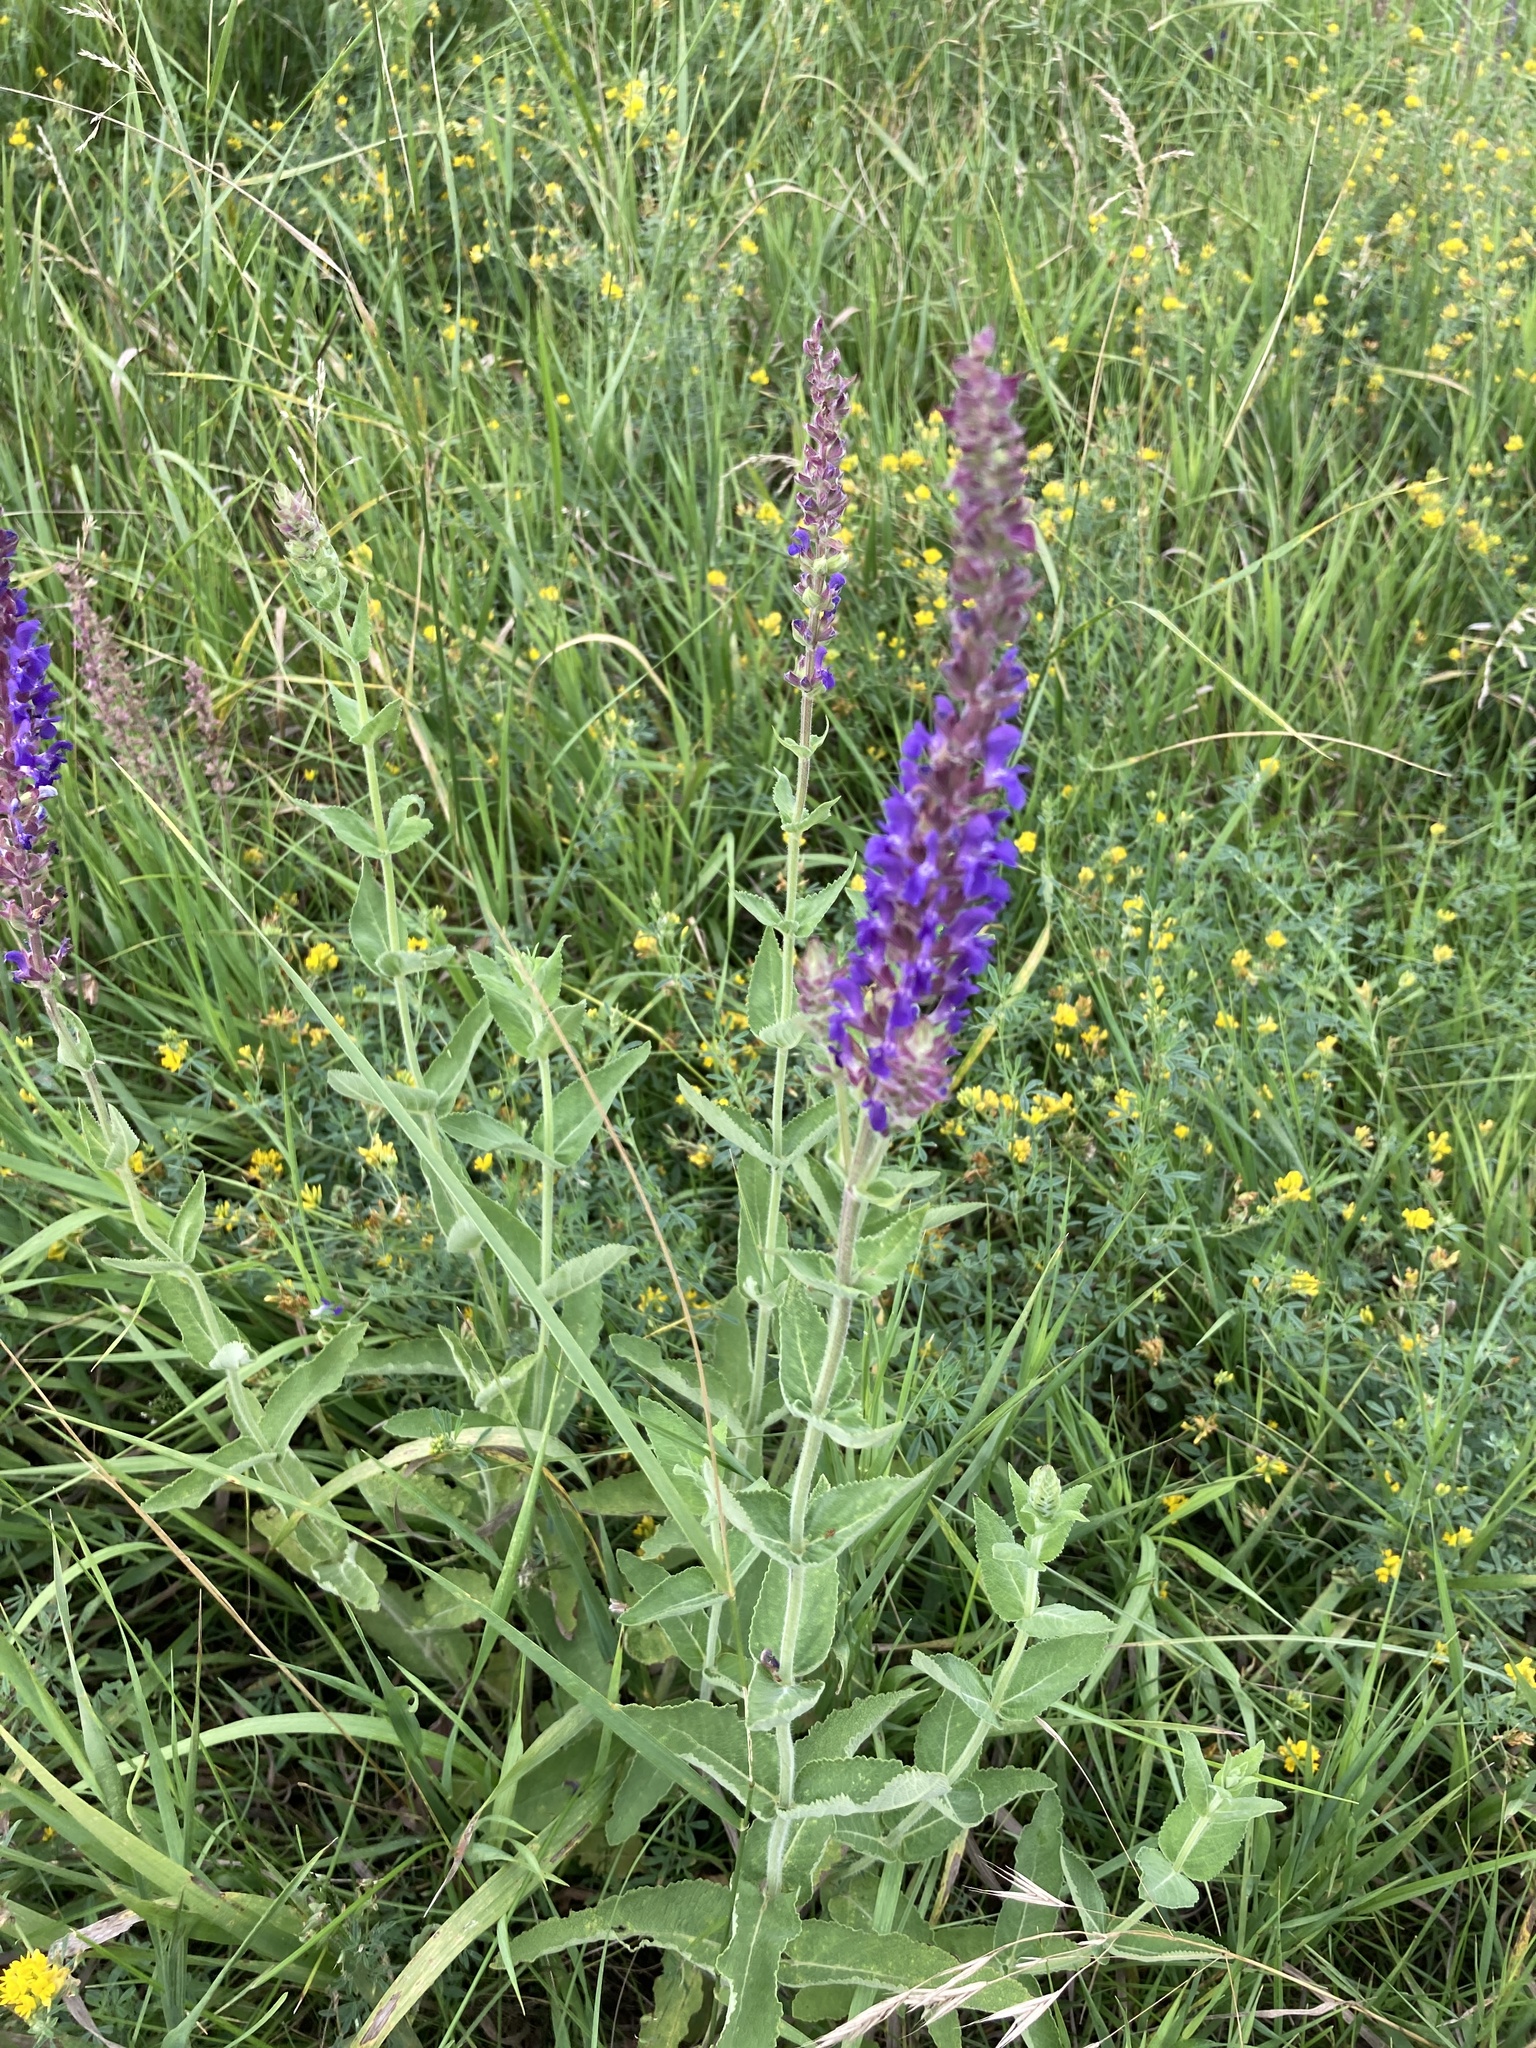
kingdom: Plantae
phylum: Tracheophyta
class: Magnoliopsida
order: Lamiales
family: Lamiaceae
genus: Salvia
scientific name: Salvia nemorosa
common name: Balkan clary
